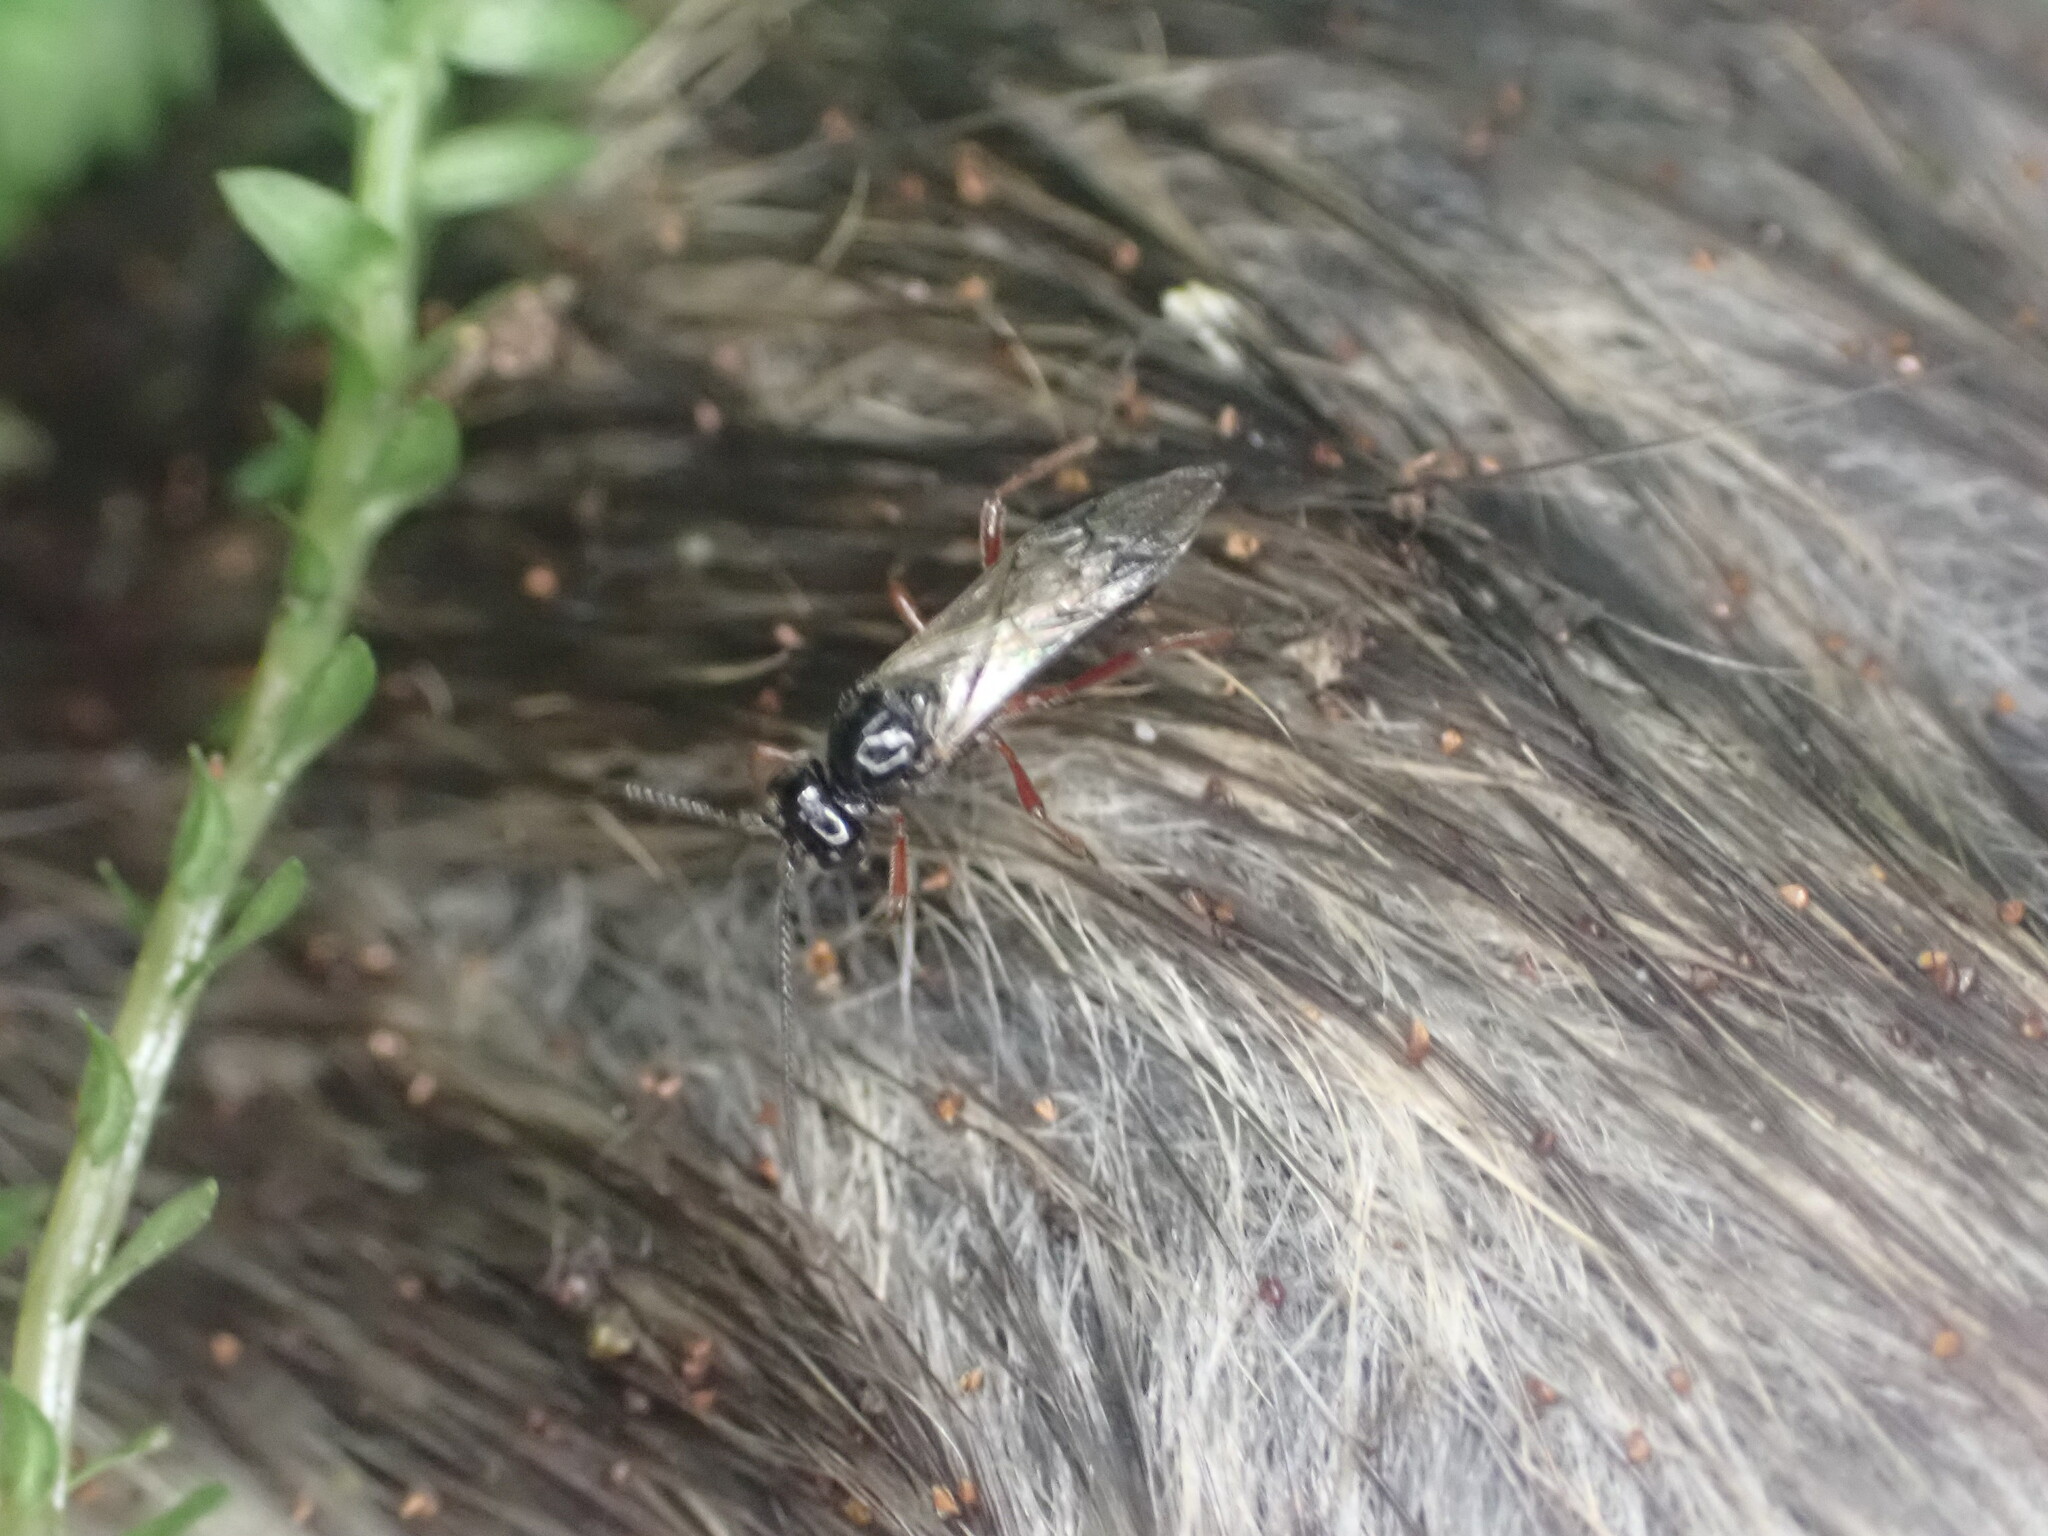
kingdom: Animalia
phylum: Arthropoda
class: Insecta
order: Hymenoptera
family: Braconidae
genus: Alysia
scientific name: Alysia manducator
